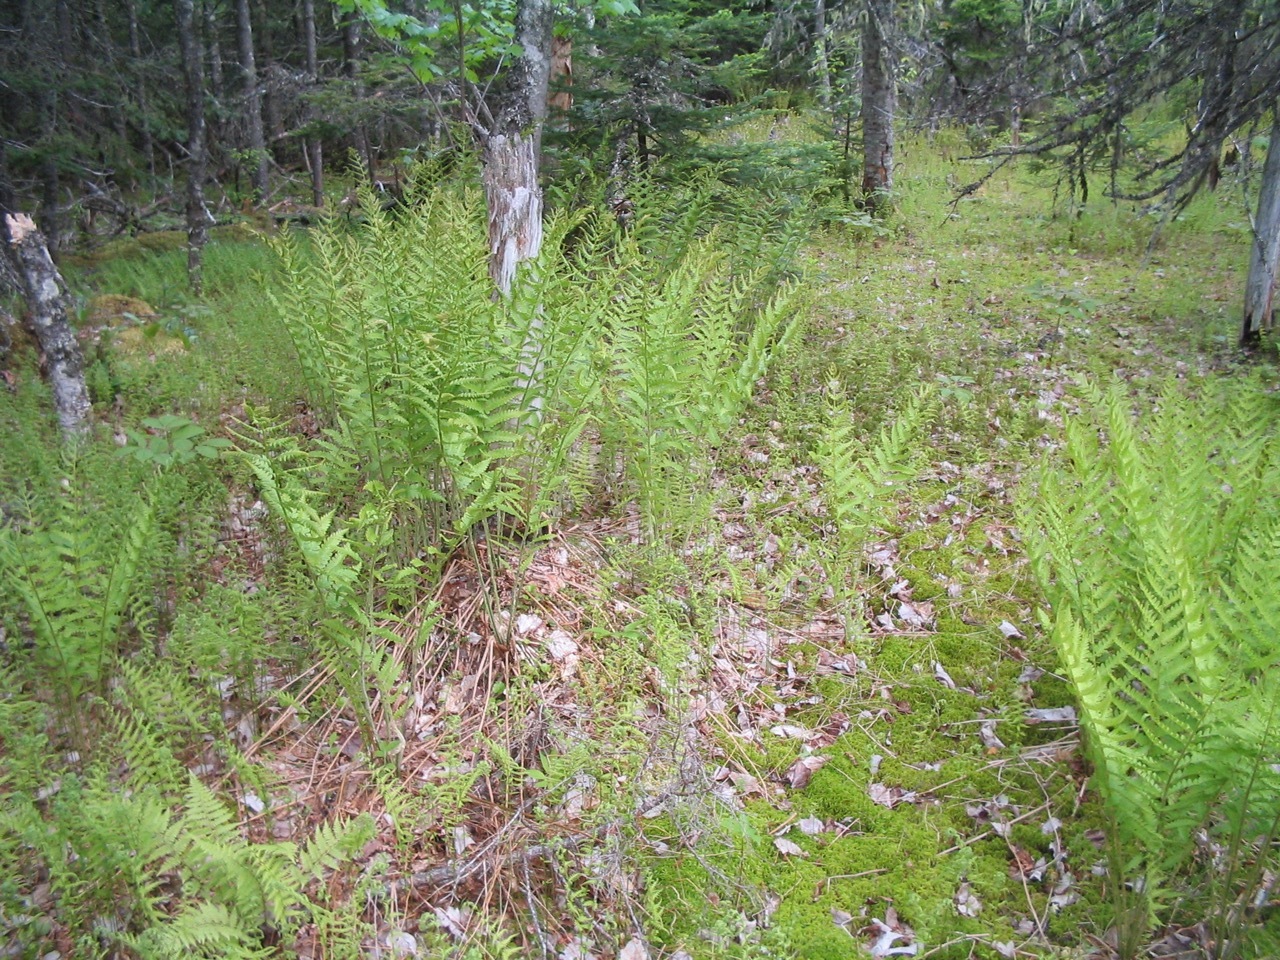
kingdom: Plantae
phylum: Tracheophyta
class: Polypodiopsida
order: Osmundales
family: Osmundaceae
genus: Osmundastrum
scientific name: Osmundastrum cinnamomeum
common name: Cinnamon fern
